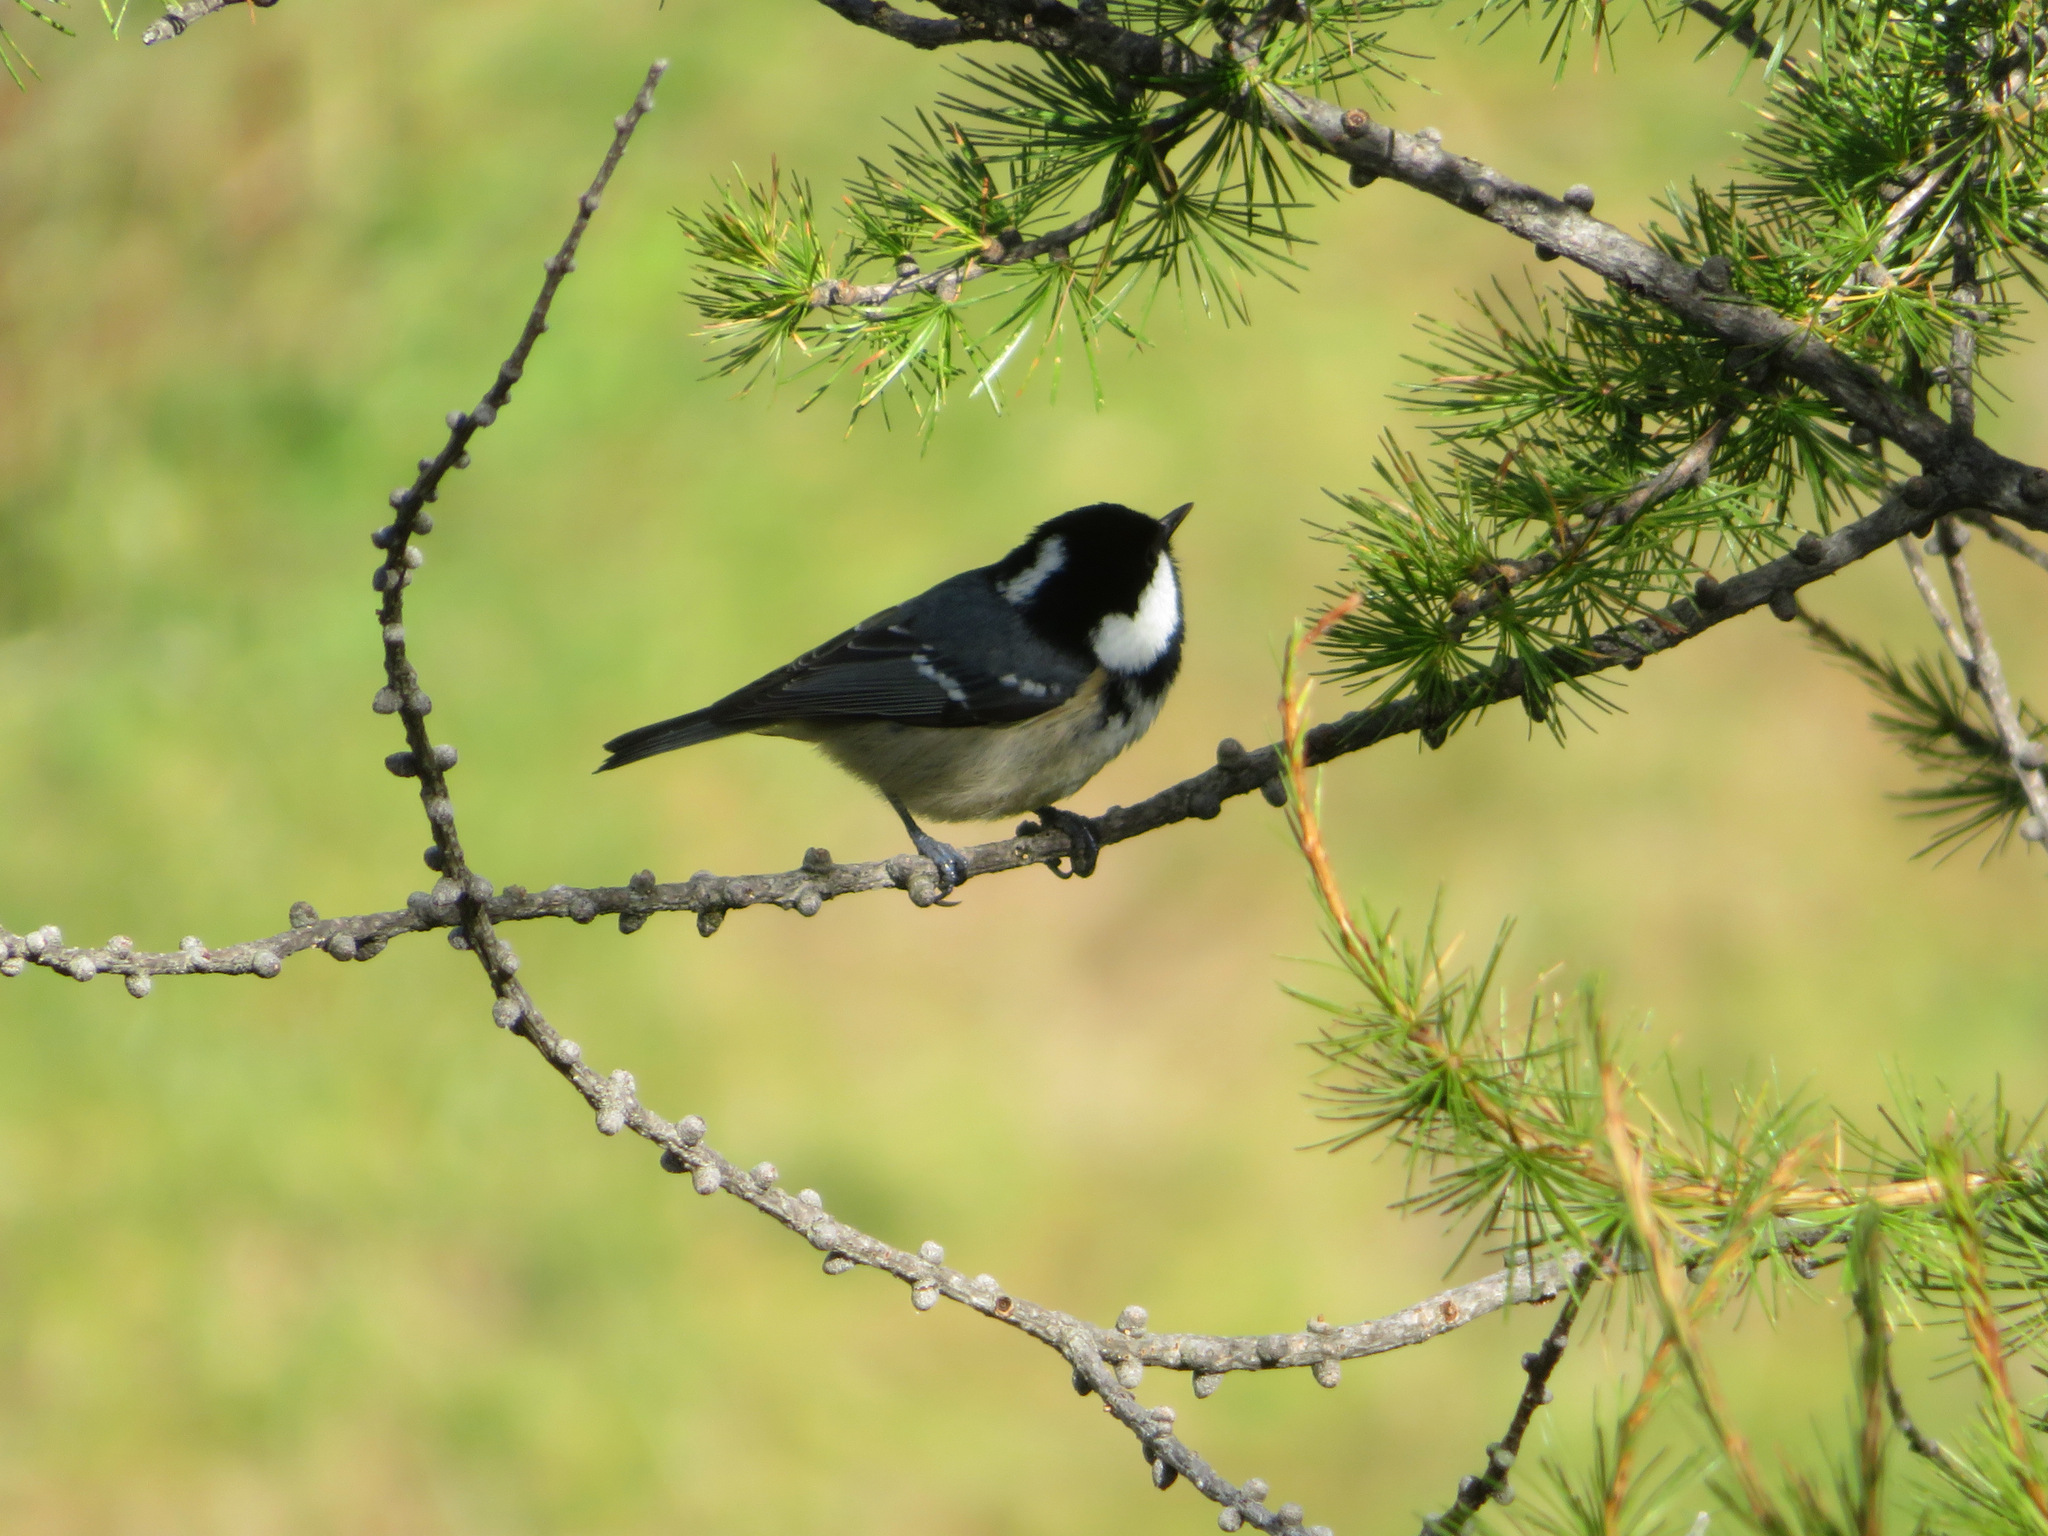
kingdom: Animalia
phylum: Chordata
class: Aves
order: Passeriformes
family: Paridae
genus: Periparus
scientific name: Periparus ater
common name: Coal tit
